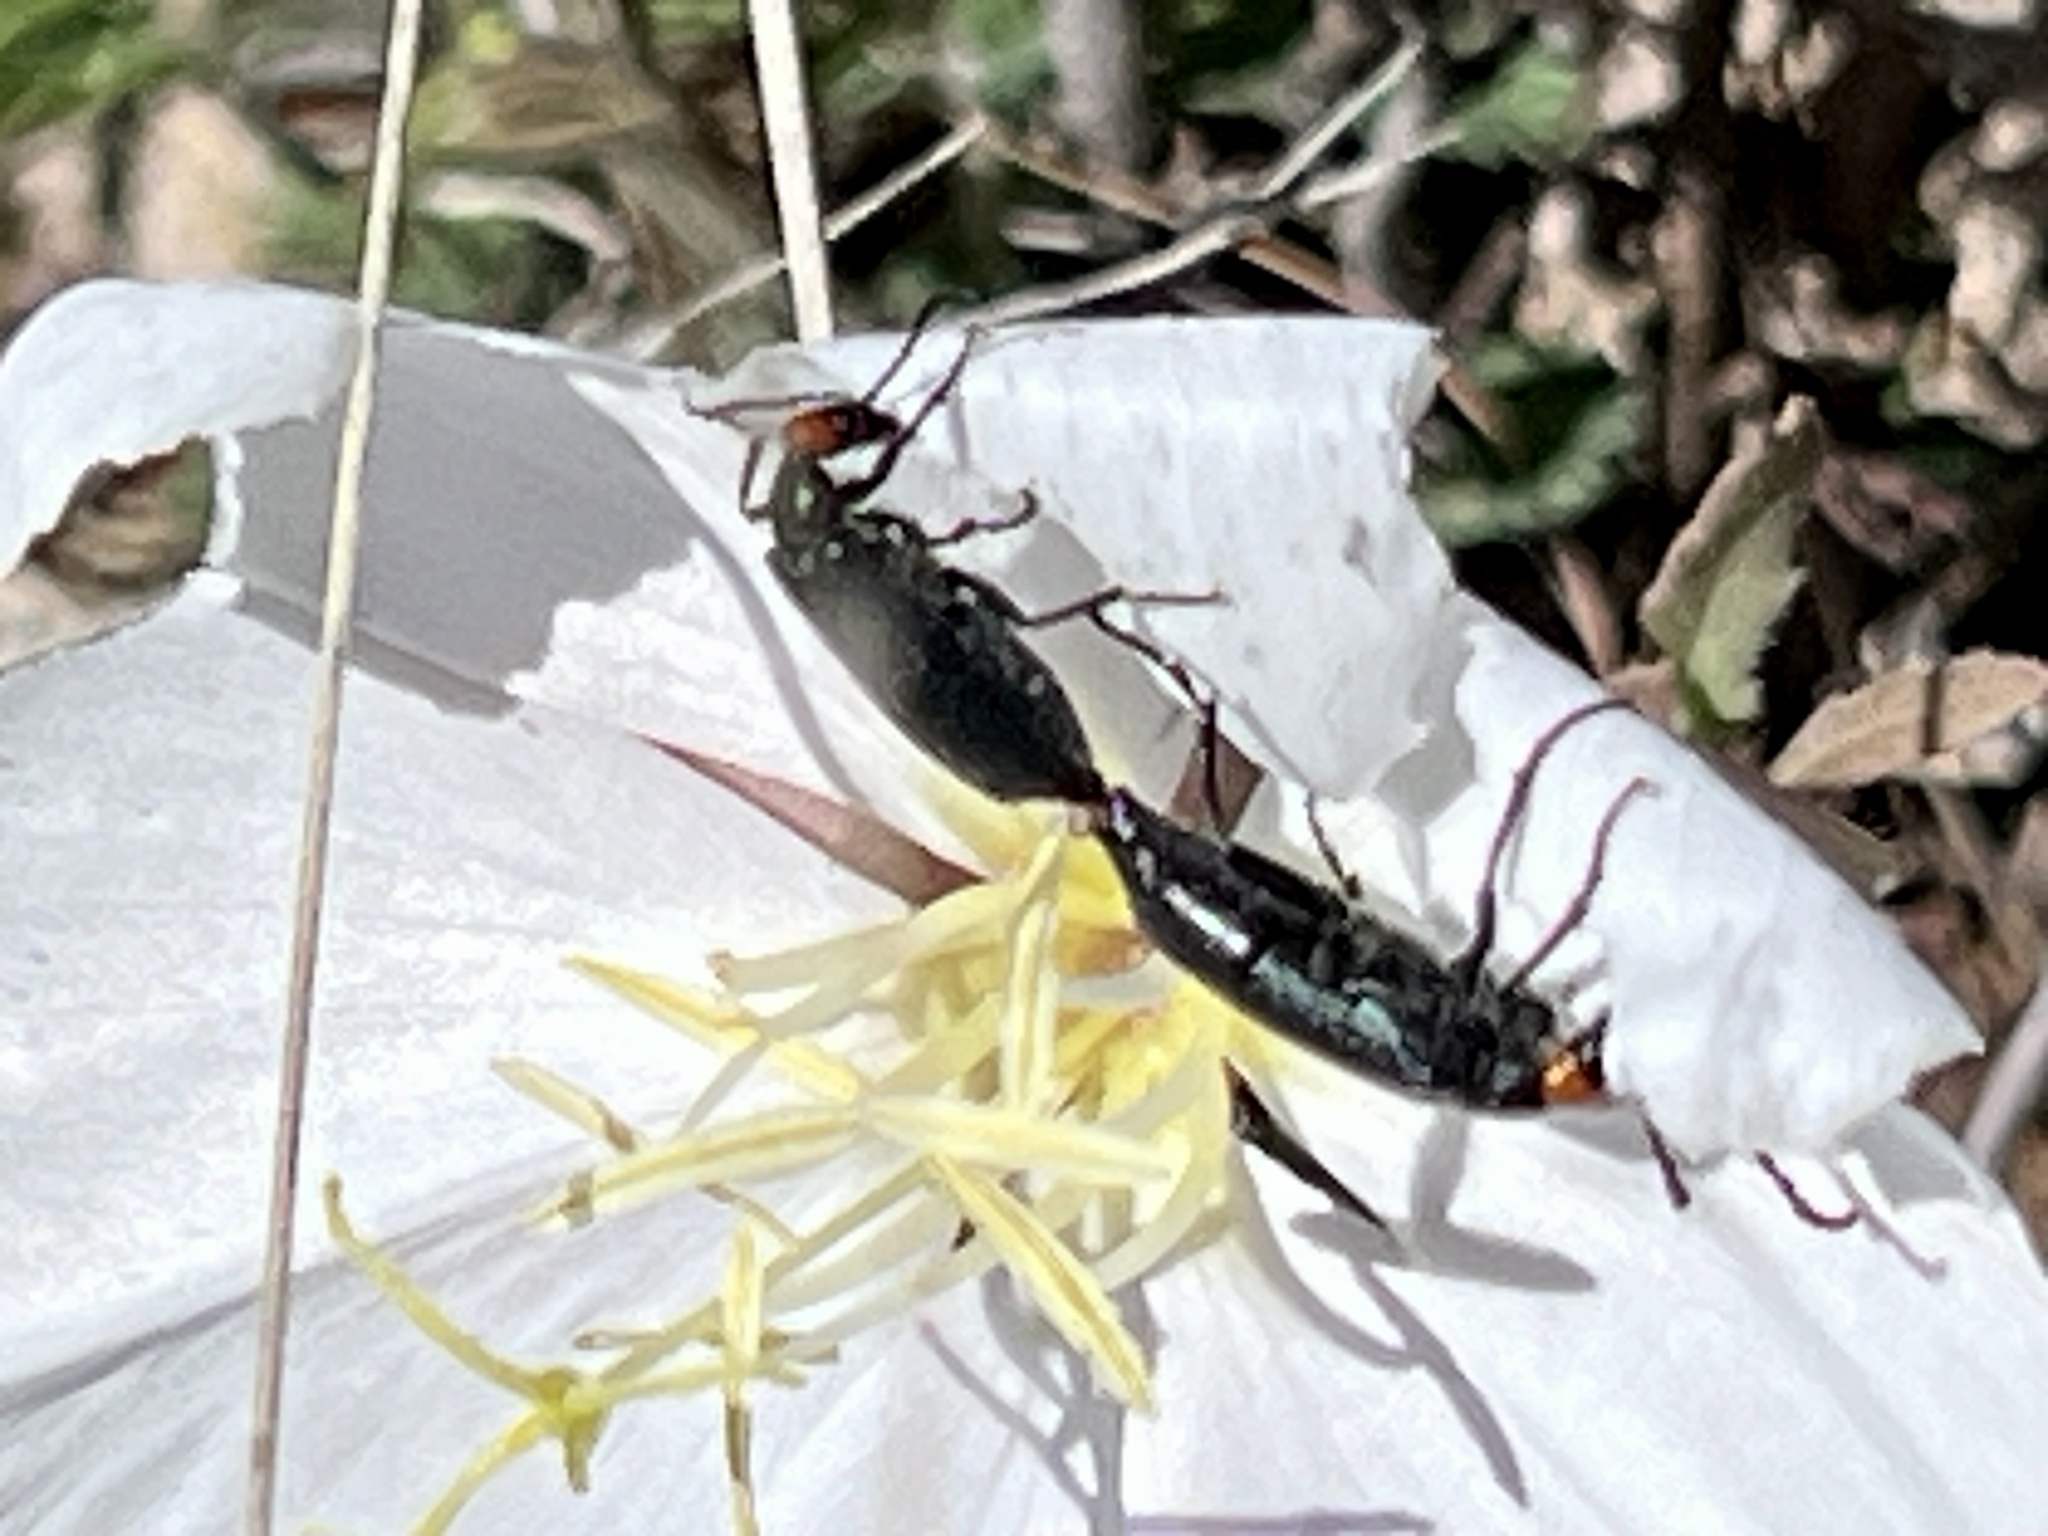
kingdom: Animalia
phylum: Arthropoda
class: Insecta
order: Coleoptera
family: Meloidae
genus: Lytta
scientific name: Lytta auriculata
